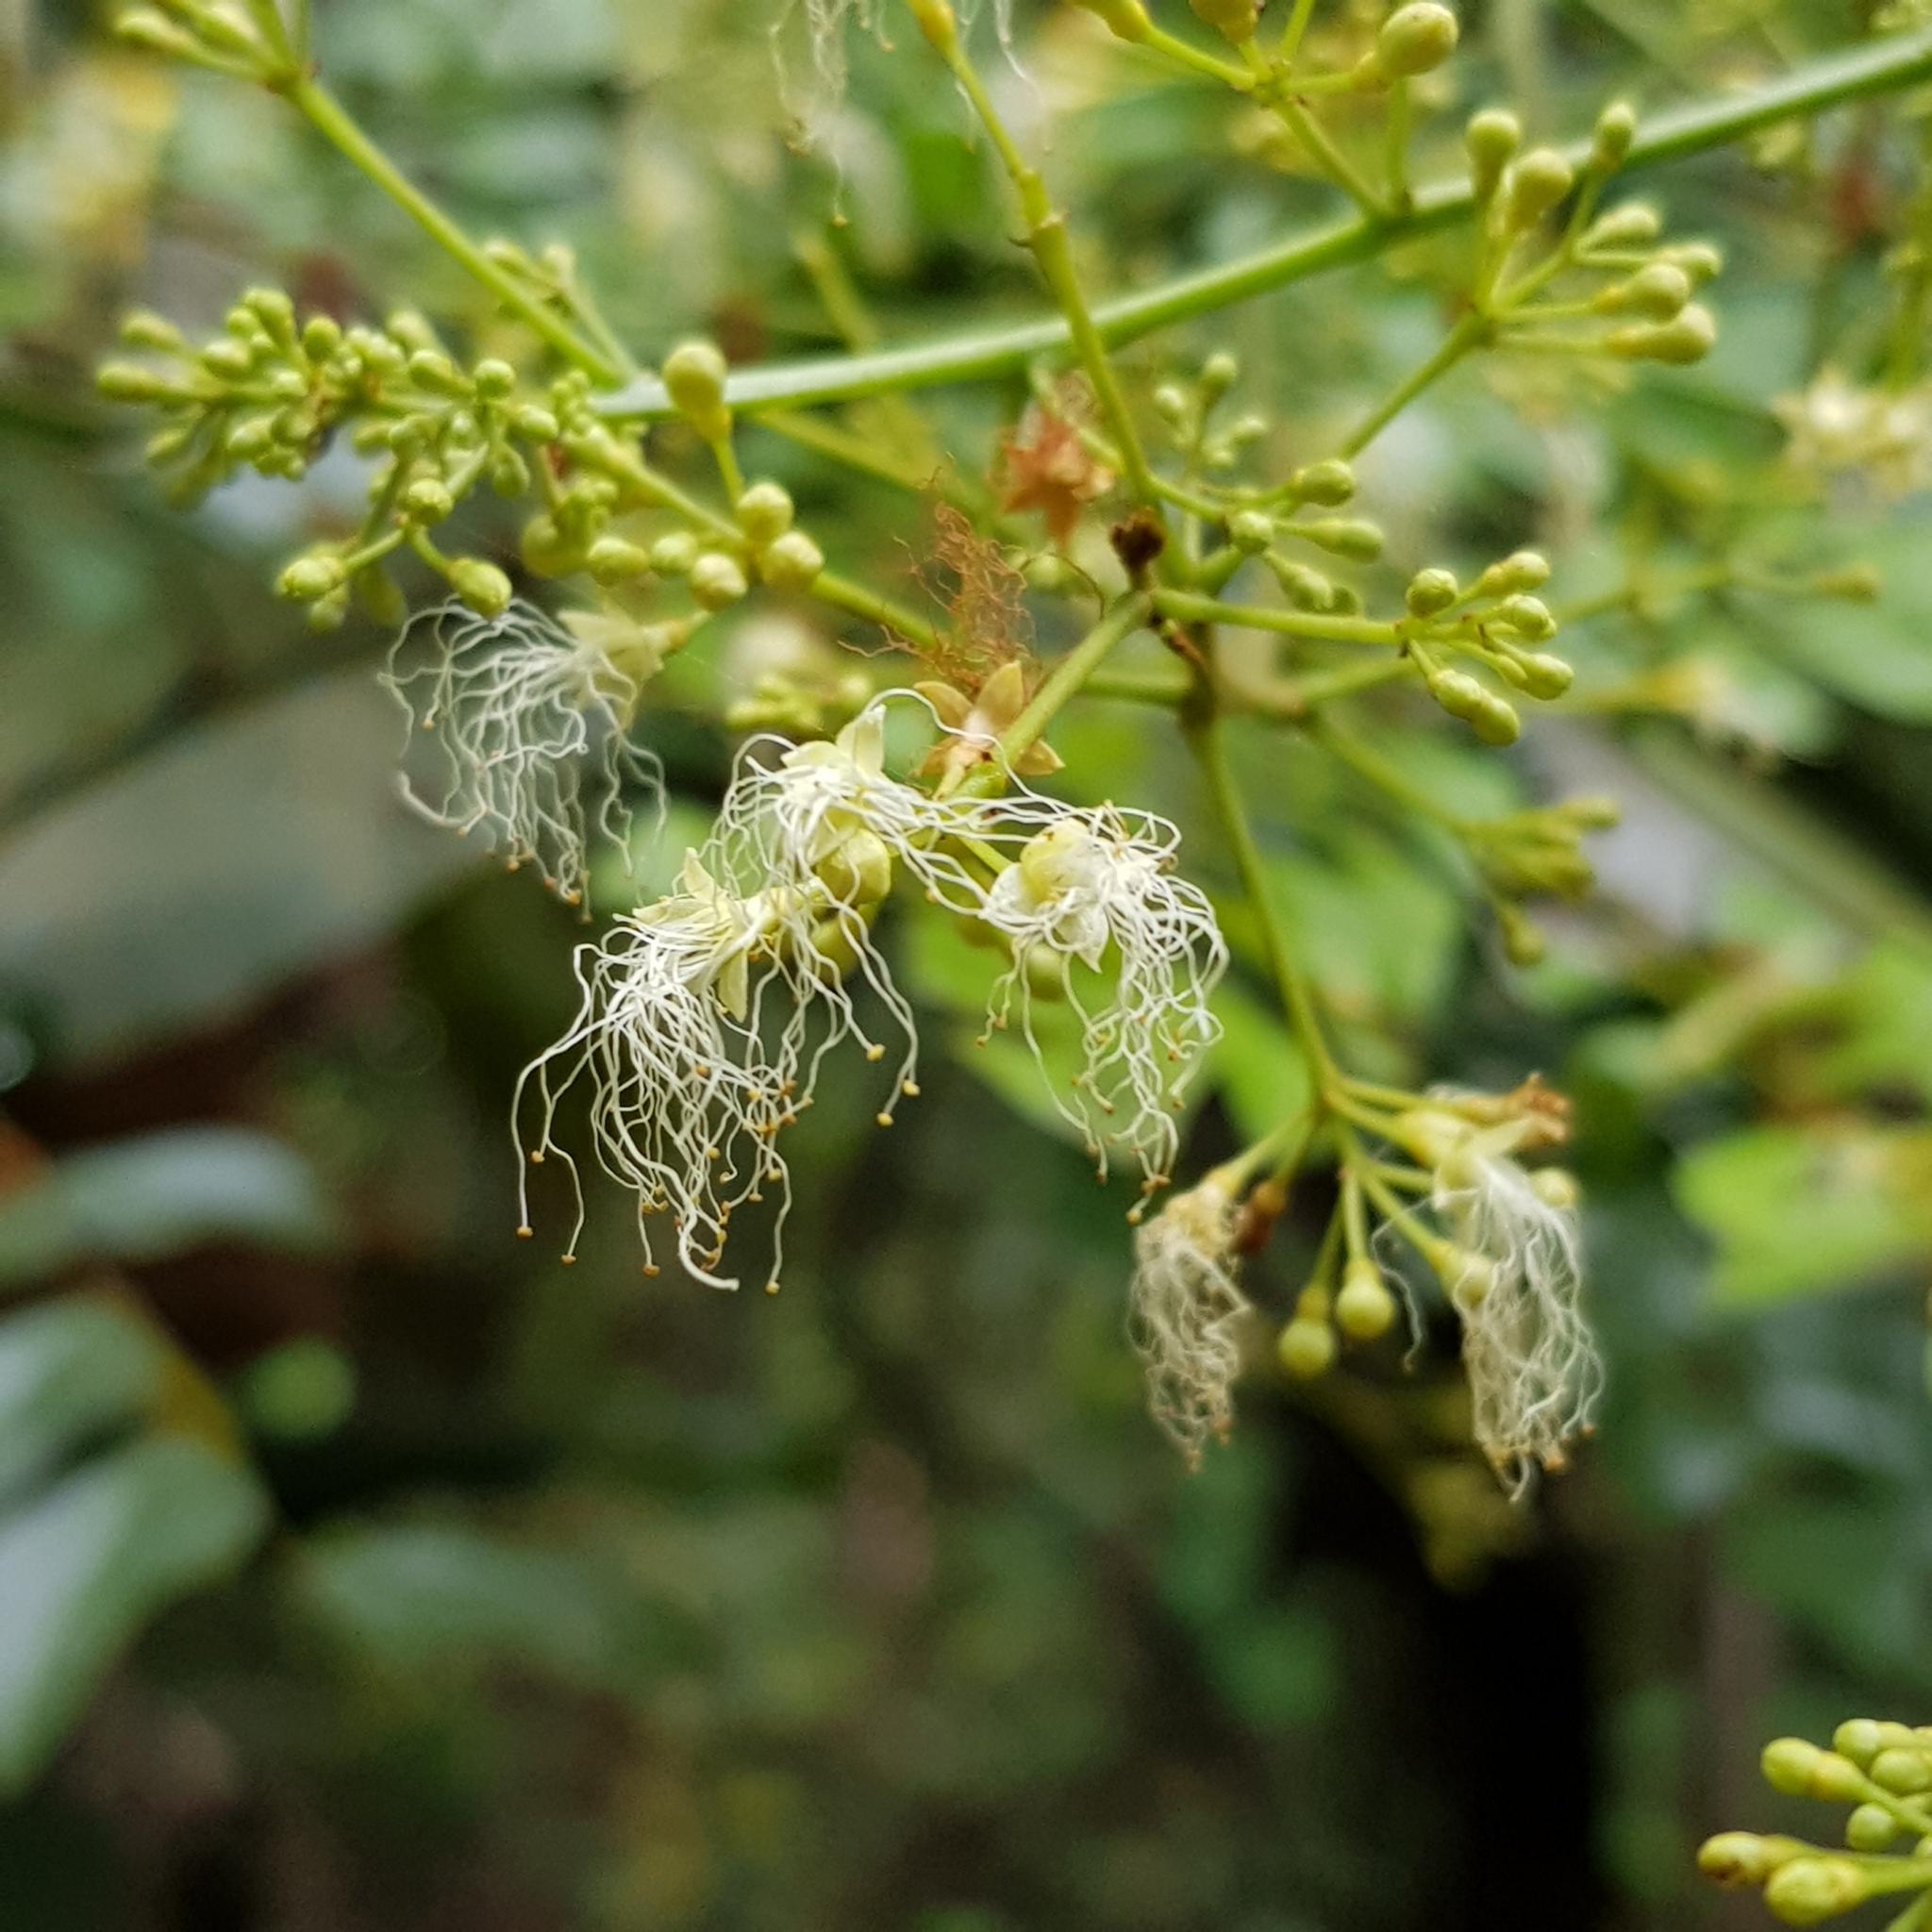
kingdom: Plantae
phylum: Tracheophyta
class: Magnoliopsida
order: Fabales
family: Fabaceae
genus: Archidendron
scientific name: Archidendron clypearia
